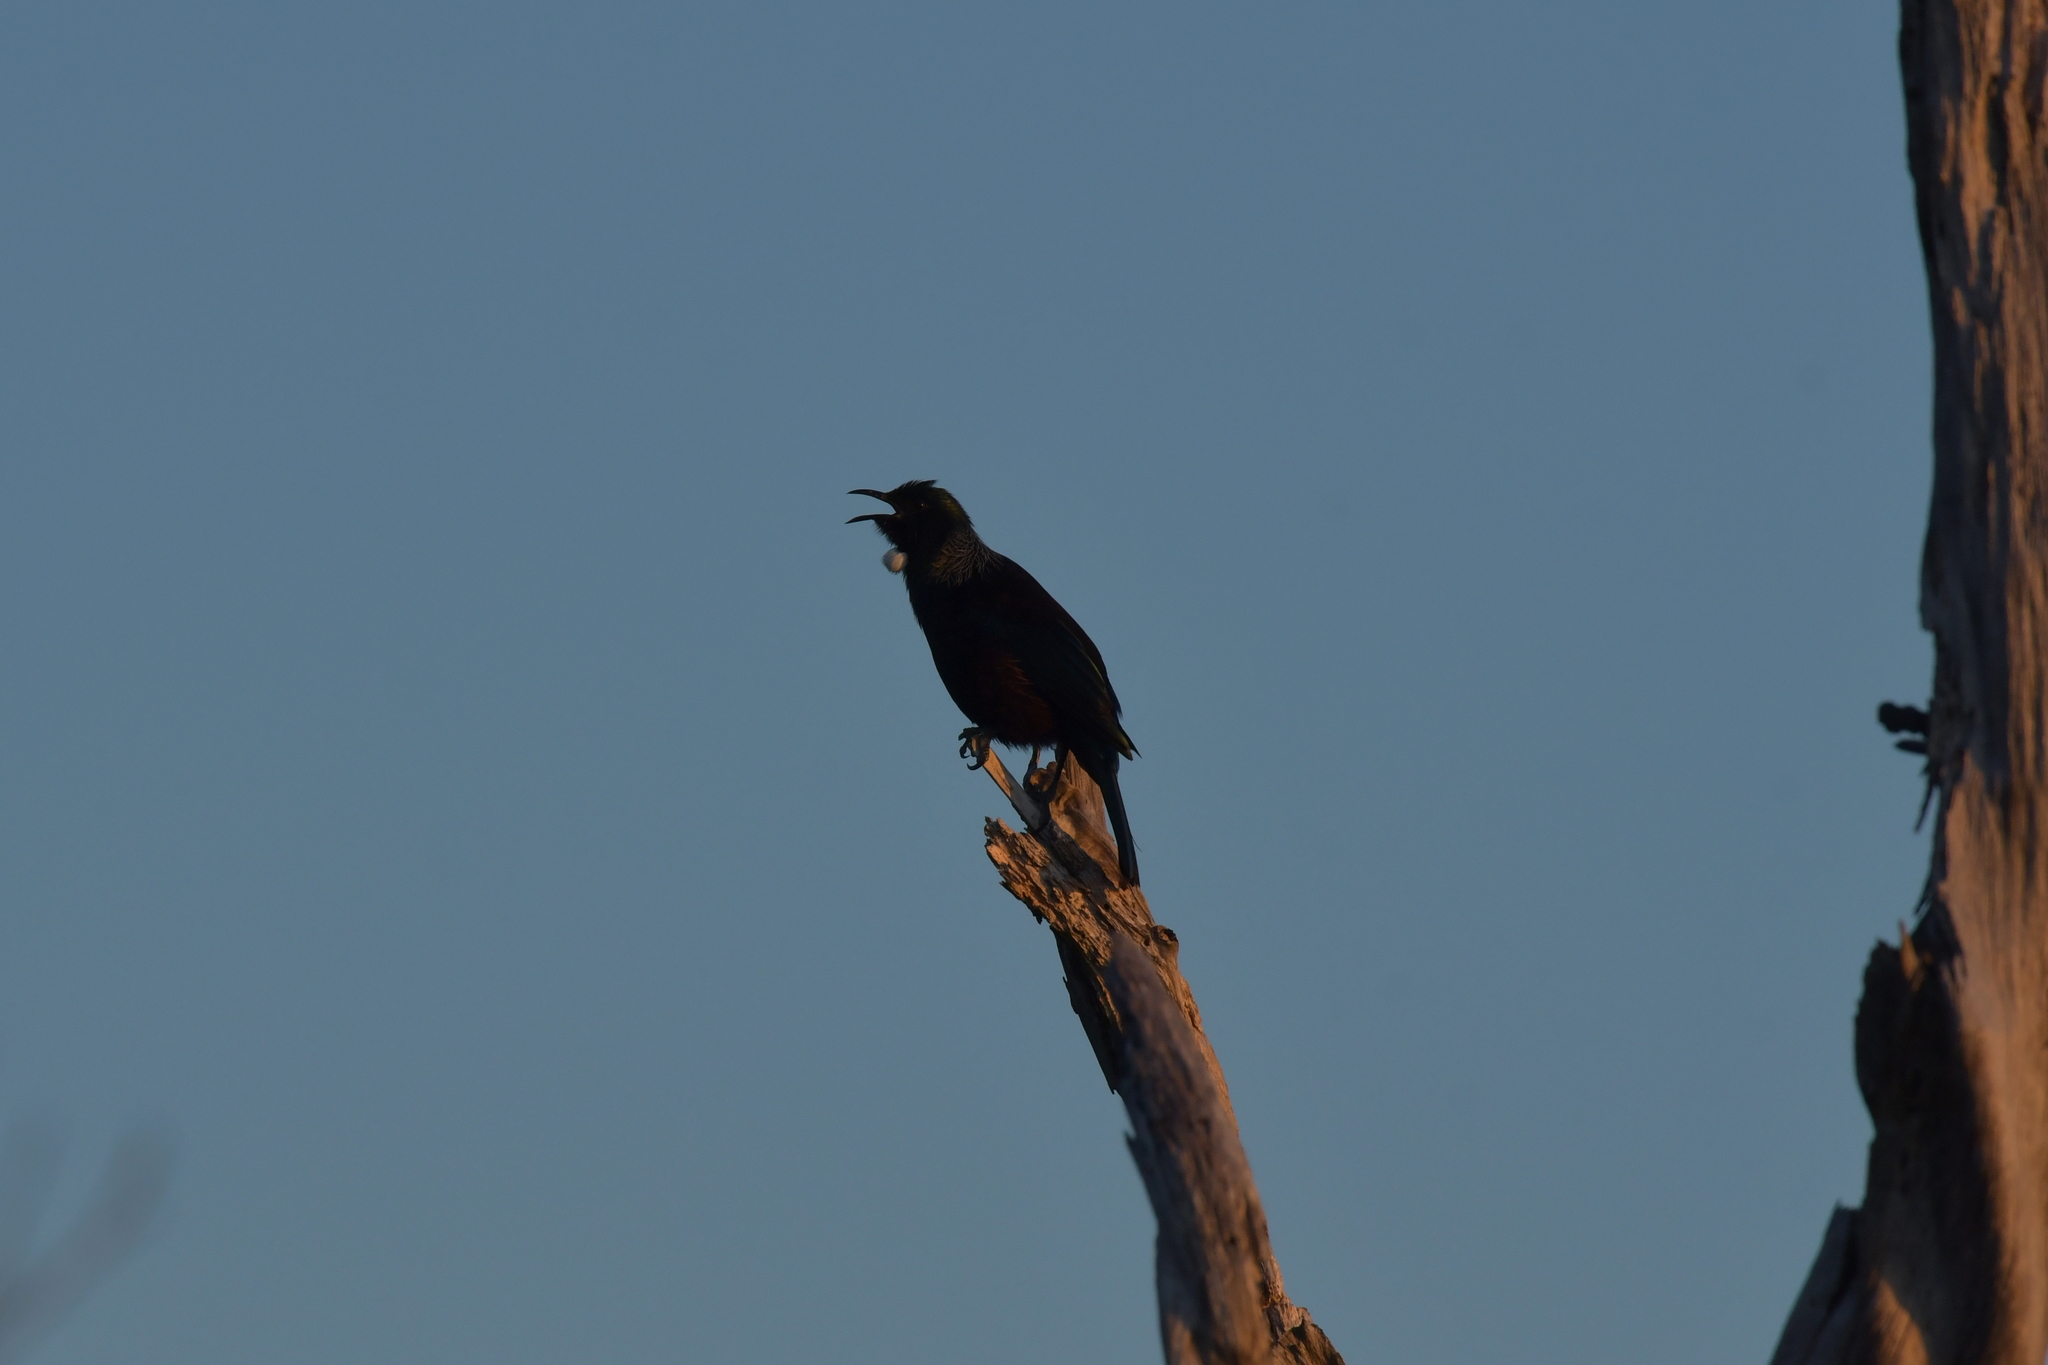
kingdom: Animalia
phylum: Chordata
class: Aves
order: Passeriformes
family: Meliphagidae
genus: Prosthemadera
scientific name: Prosthemadera novaeseelandiae
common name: Tui
